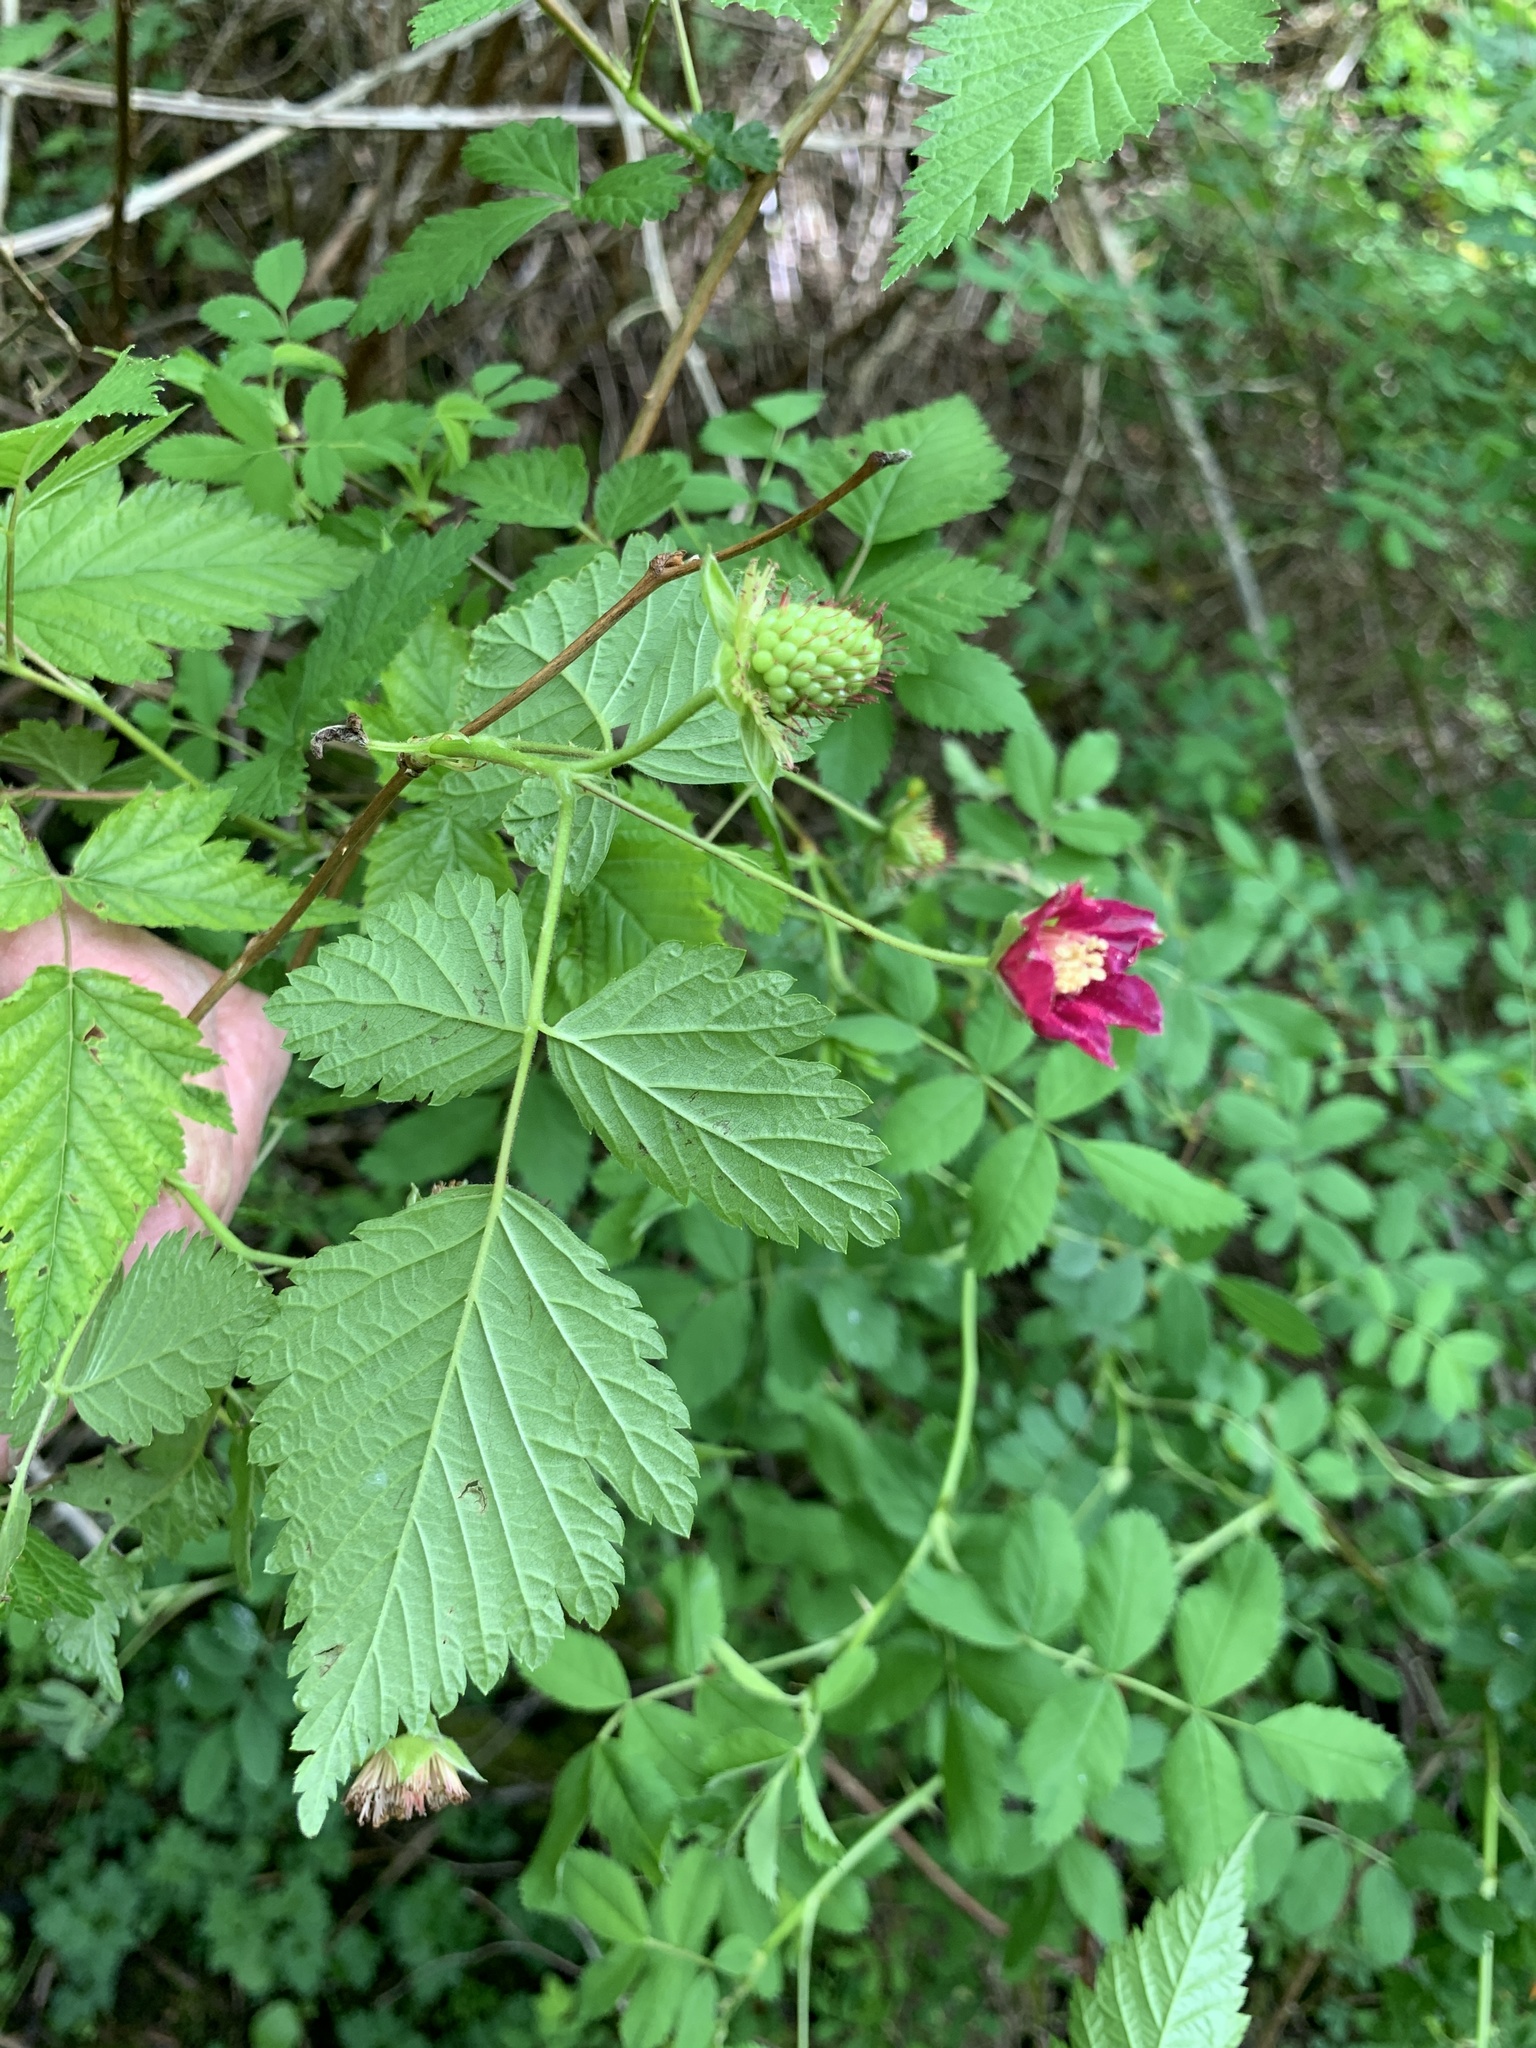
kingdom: Plantae
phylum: Tracheophyta
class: Magnoliopsida
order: Rosales
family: Rosaceae
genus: Rubus
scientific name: Rubus spectabilis
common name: Salmonberry
